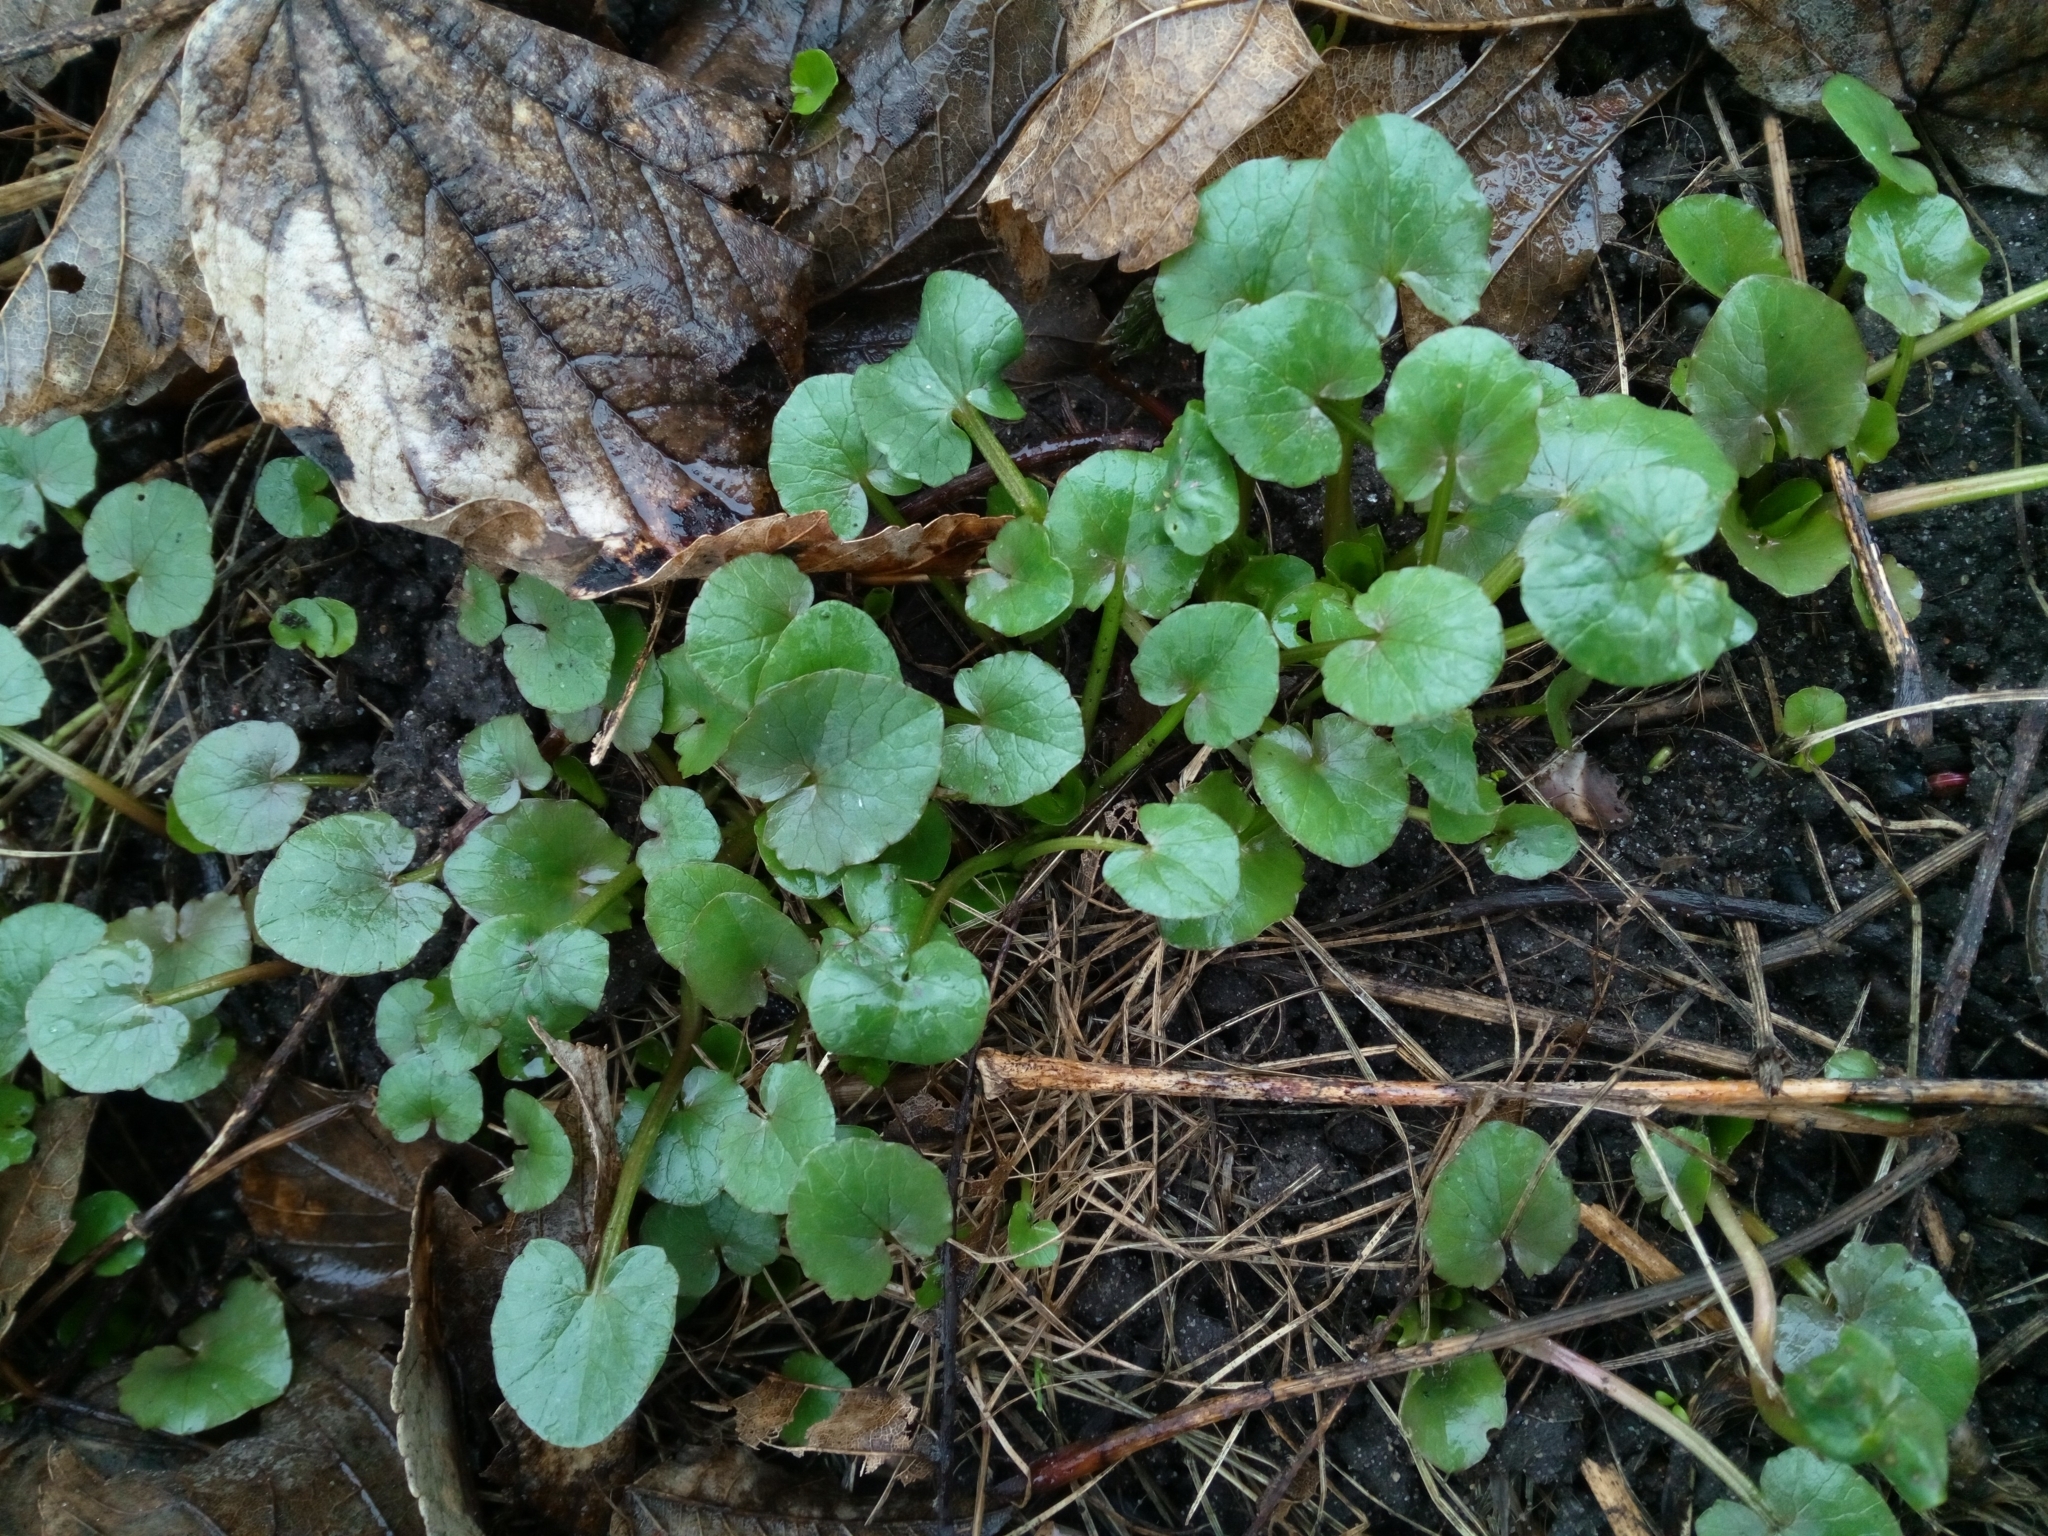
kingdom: Plantae
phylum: Tracheophyta
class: Magnoliopsida
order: Ranunculales
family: Ranunculaceae
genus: Ficaria
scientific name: Ficaria verna
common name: Lesser celandine
